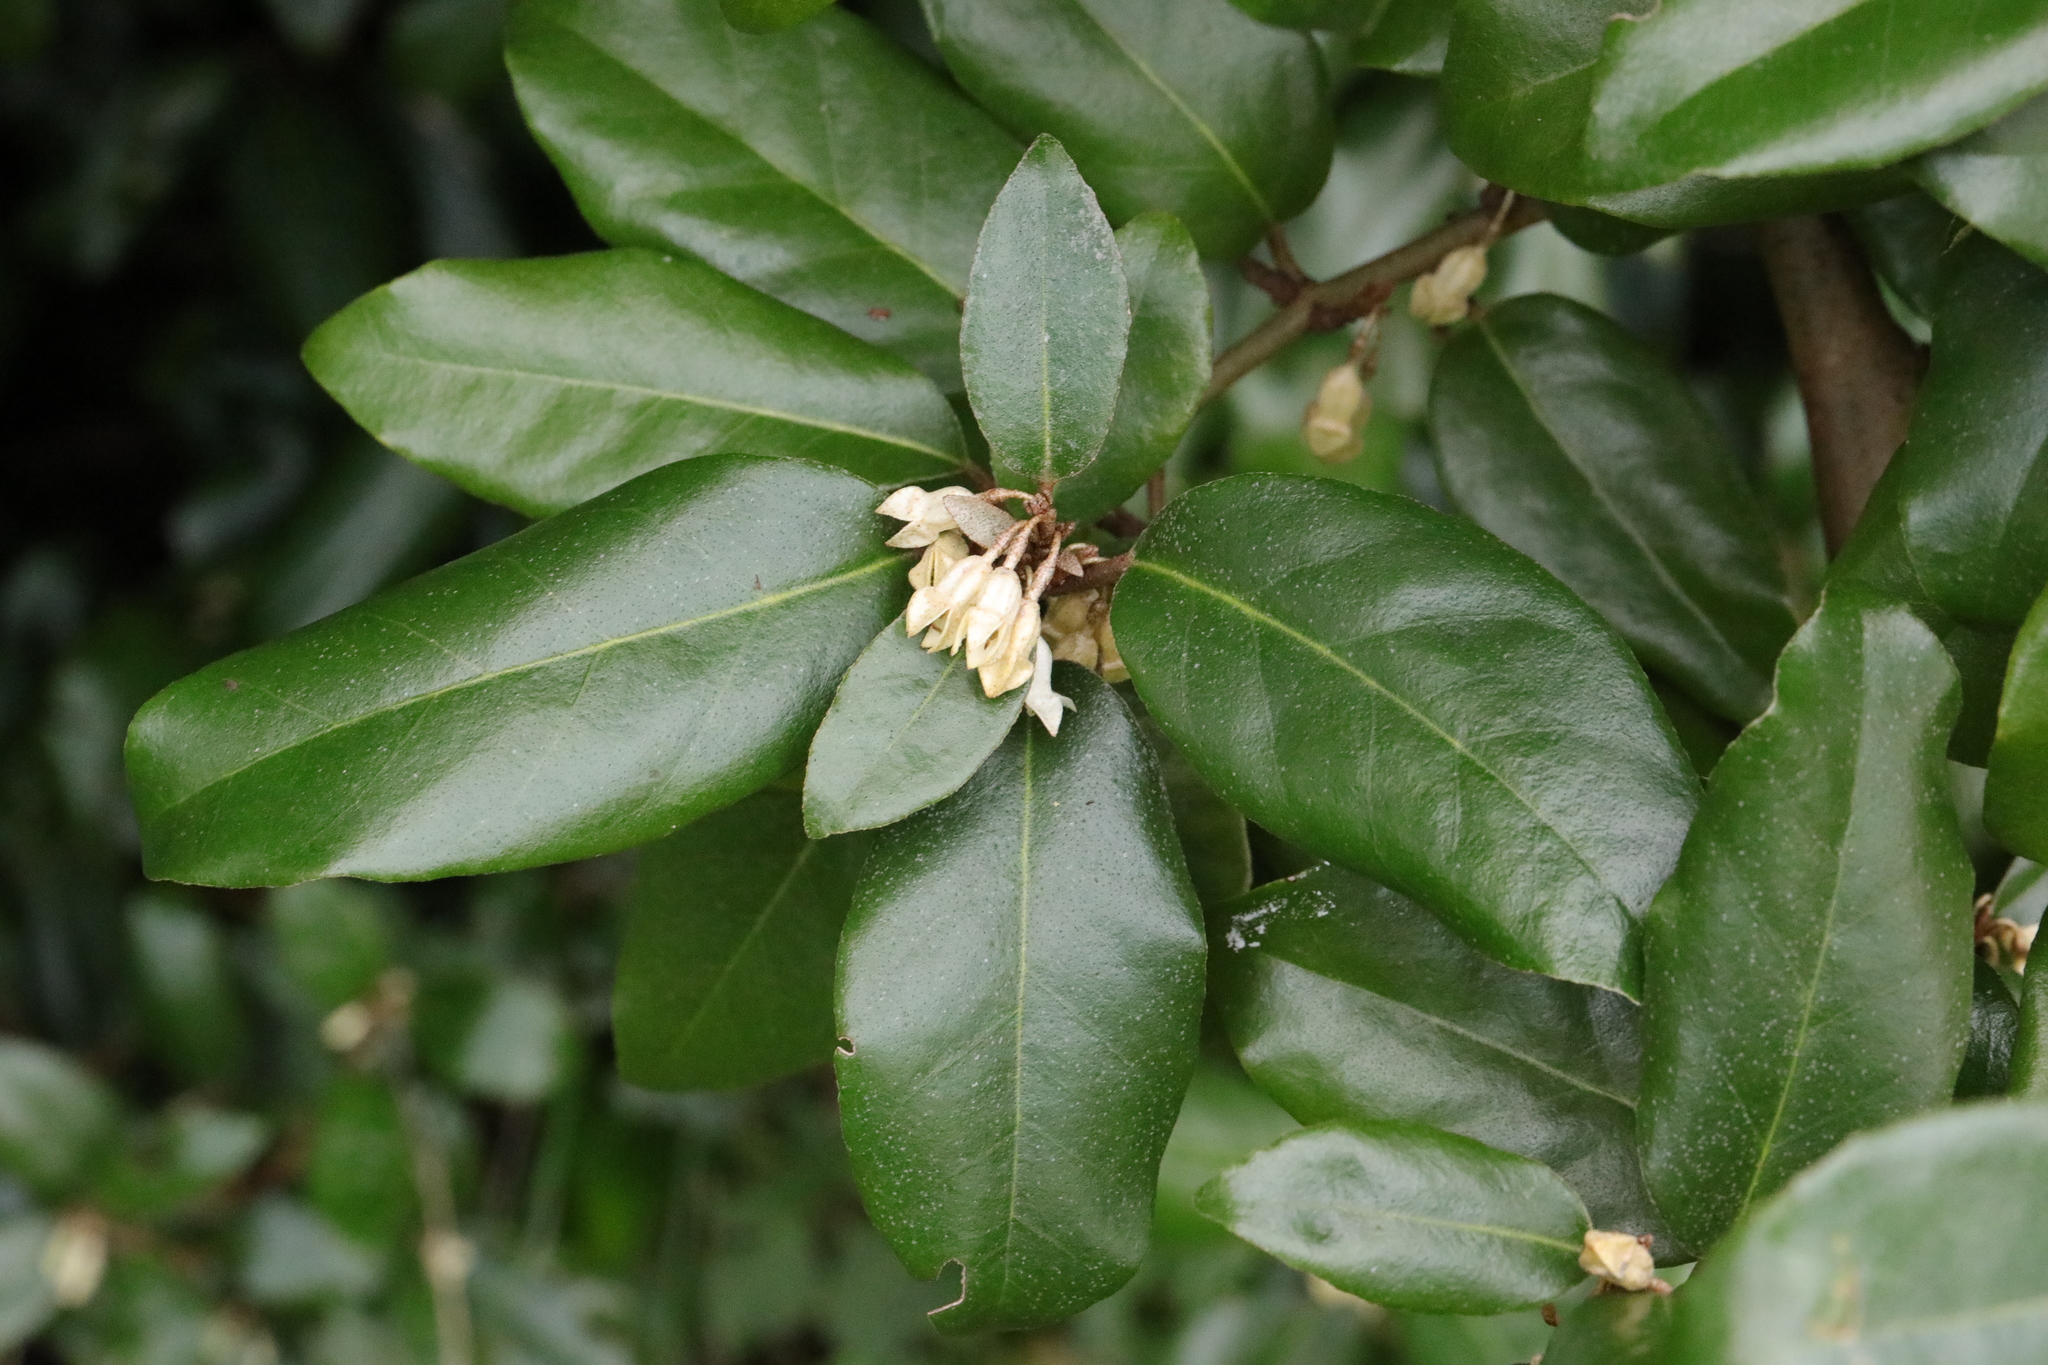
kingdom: Plantae
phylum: Tracheophyta
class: Magnoliopsida
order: Rosales
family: Elaeagnaceae
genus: Elaeagnus
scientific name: Elaeagnus pungens
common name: Spiny oleaster
